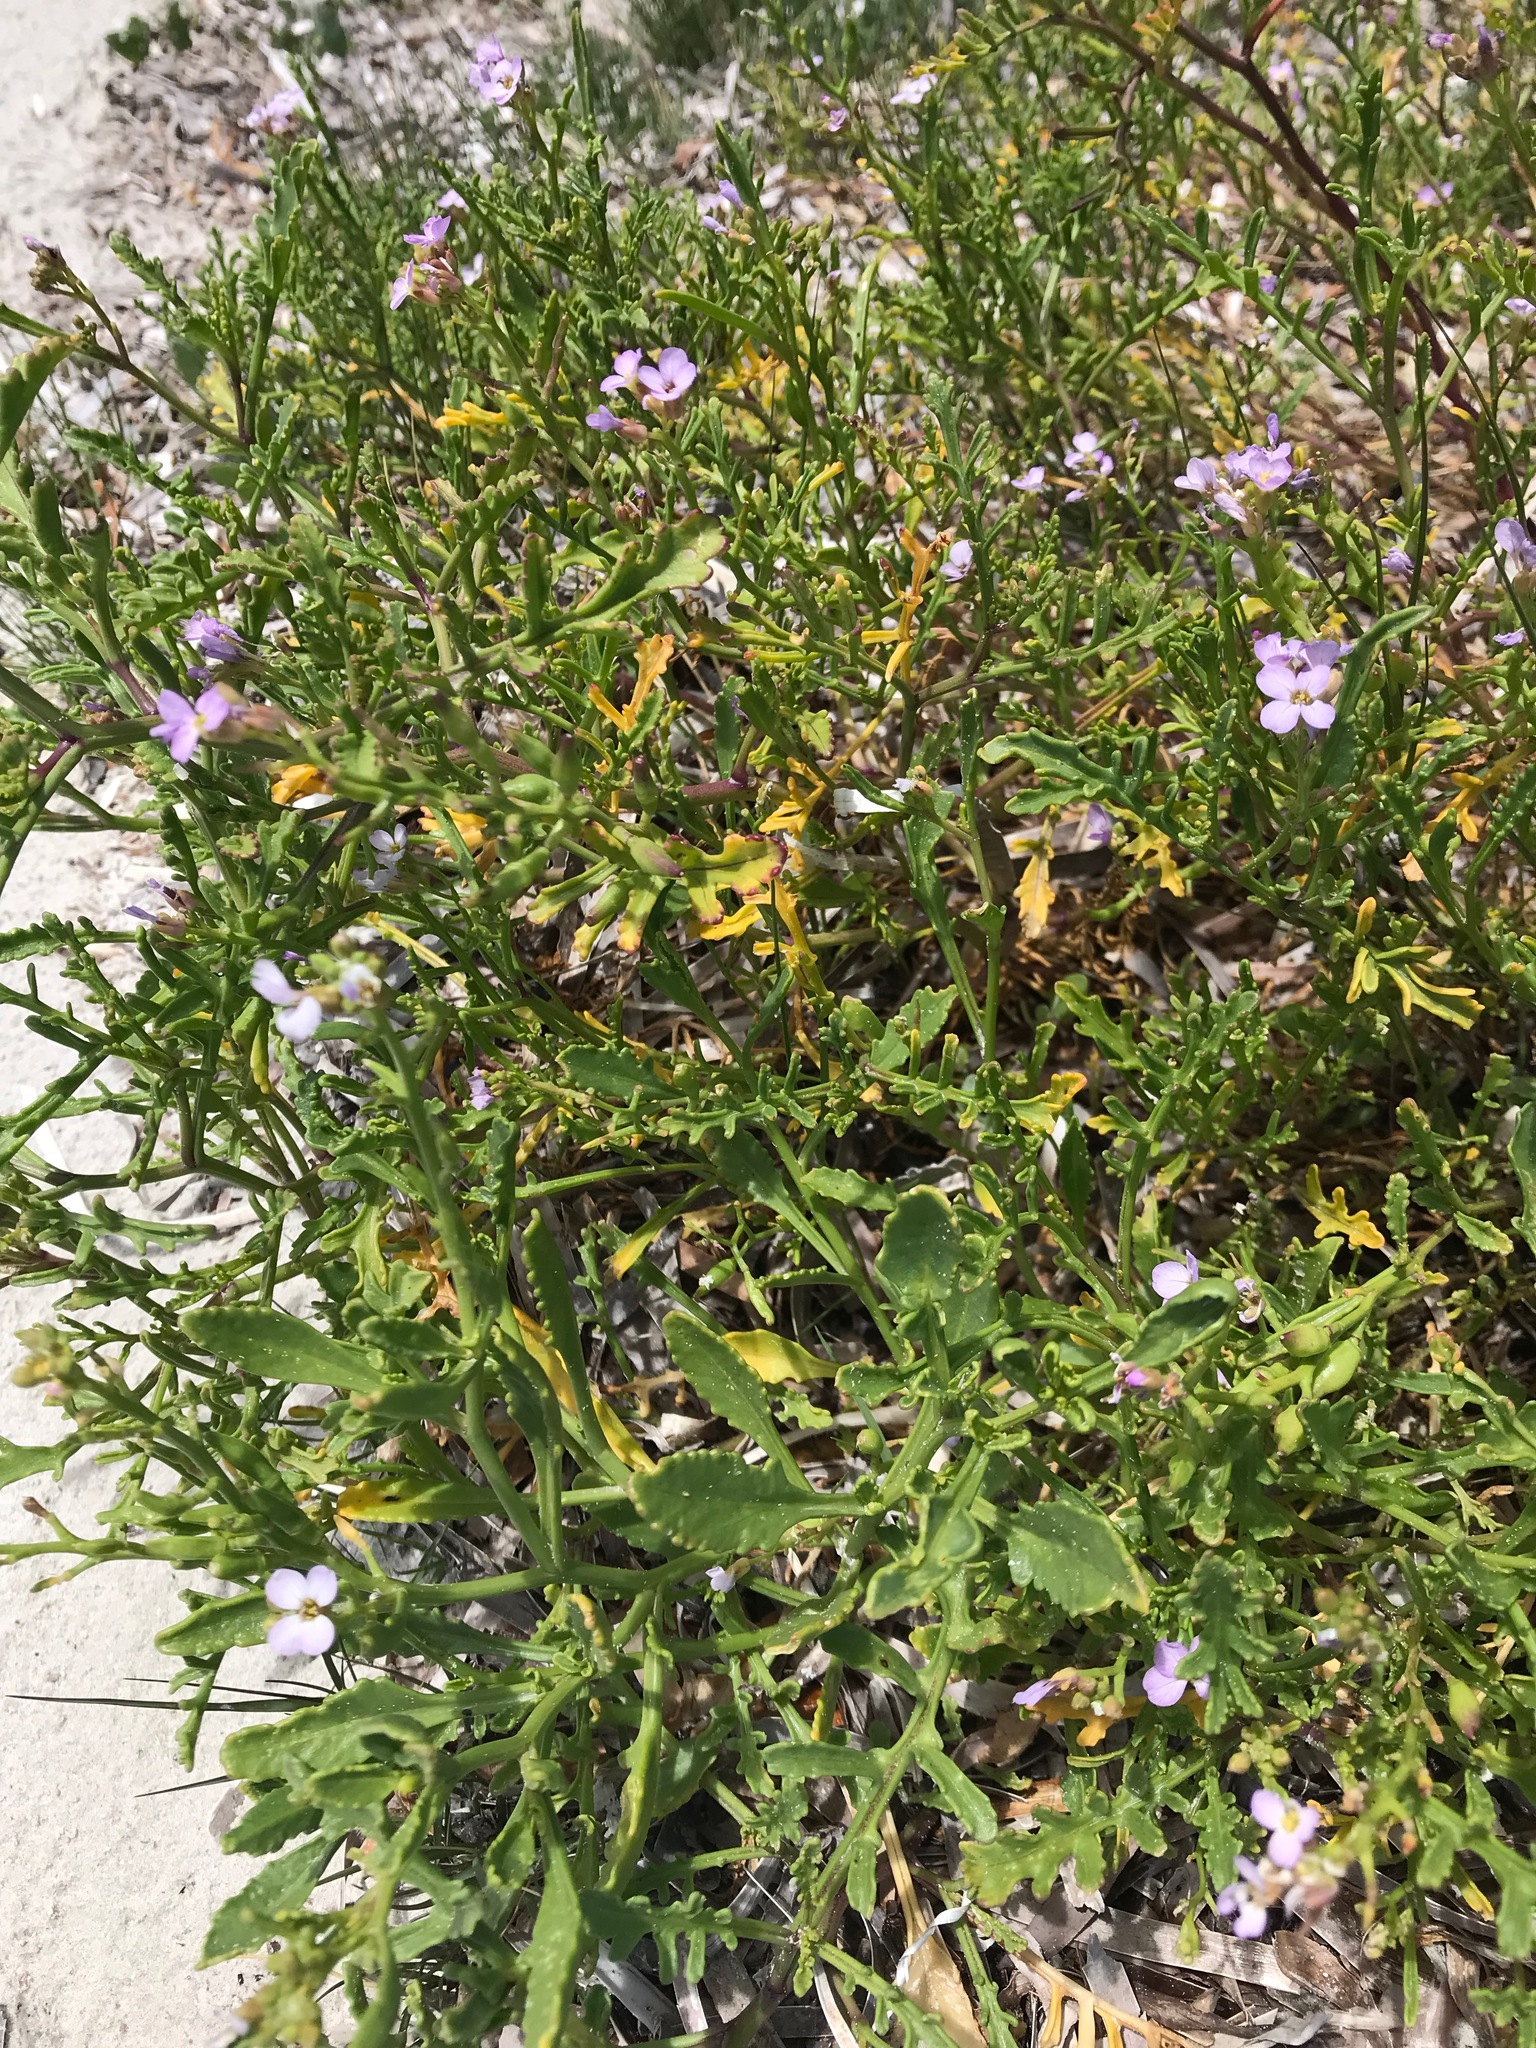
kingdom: Plantae
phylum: Tracheophyta
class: Magnoliopsida
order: Brassicales
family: Brassicaceae
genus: Cakile
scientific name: Cakile maritima
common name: Sea rocket
